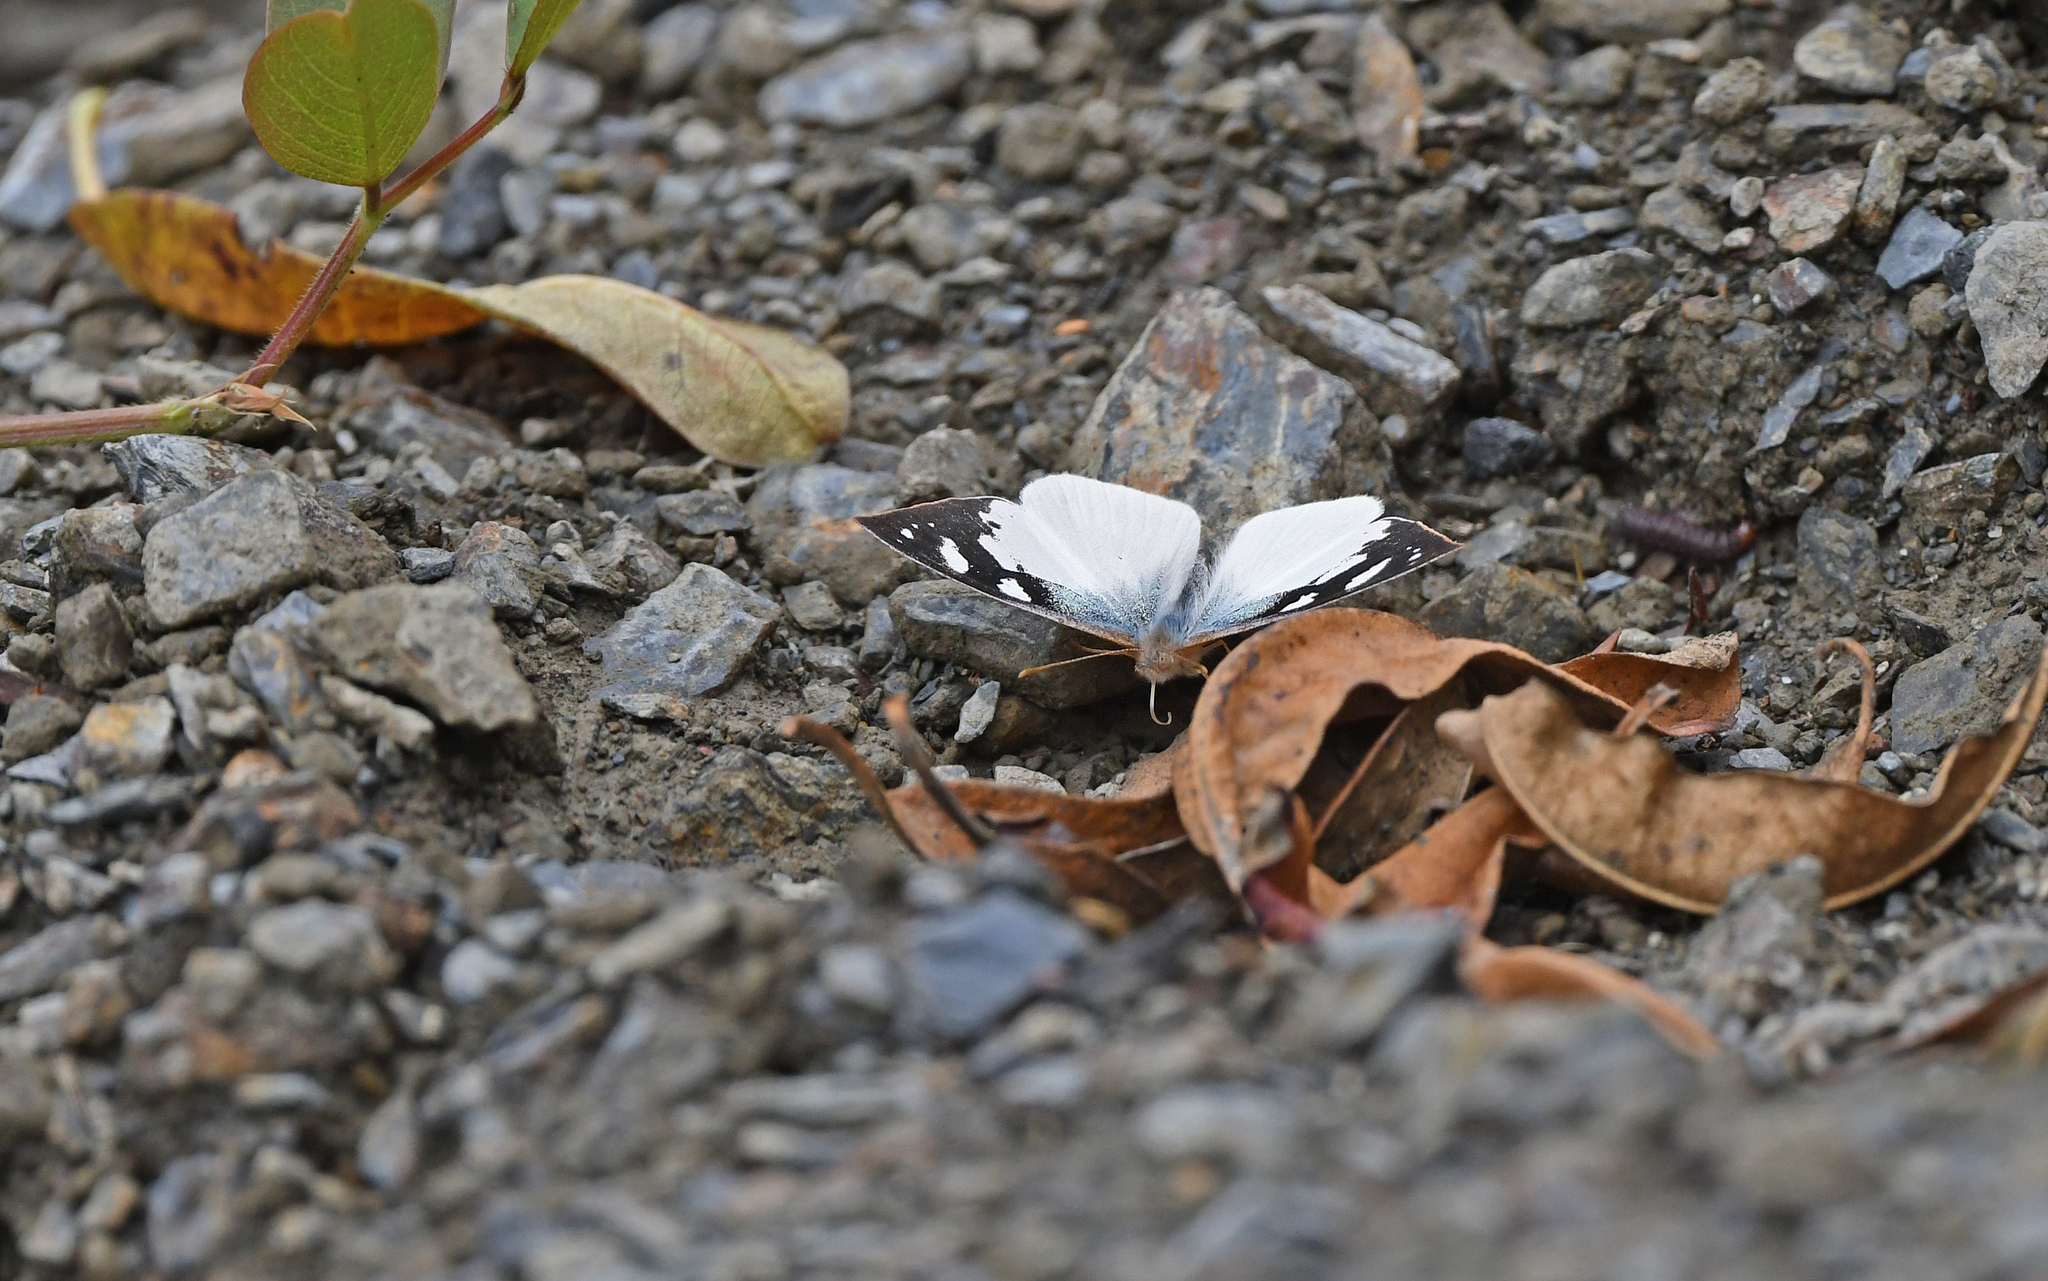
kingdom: Animalia
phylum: Arthropoda
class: Insecta
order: Lepidoptera
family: Nymphalidae
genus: Lymanopoda
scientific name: Lymanopoda eubagioides
